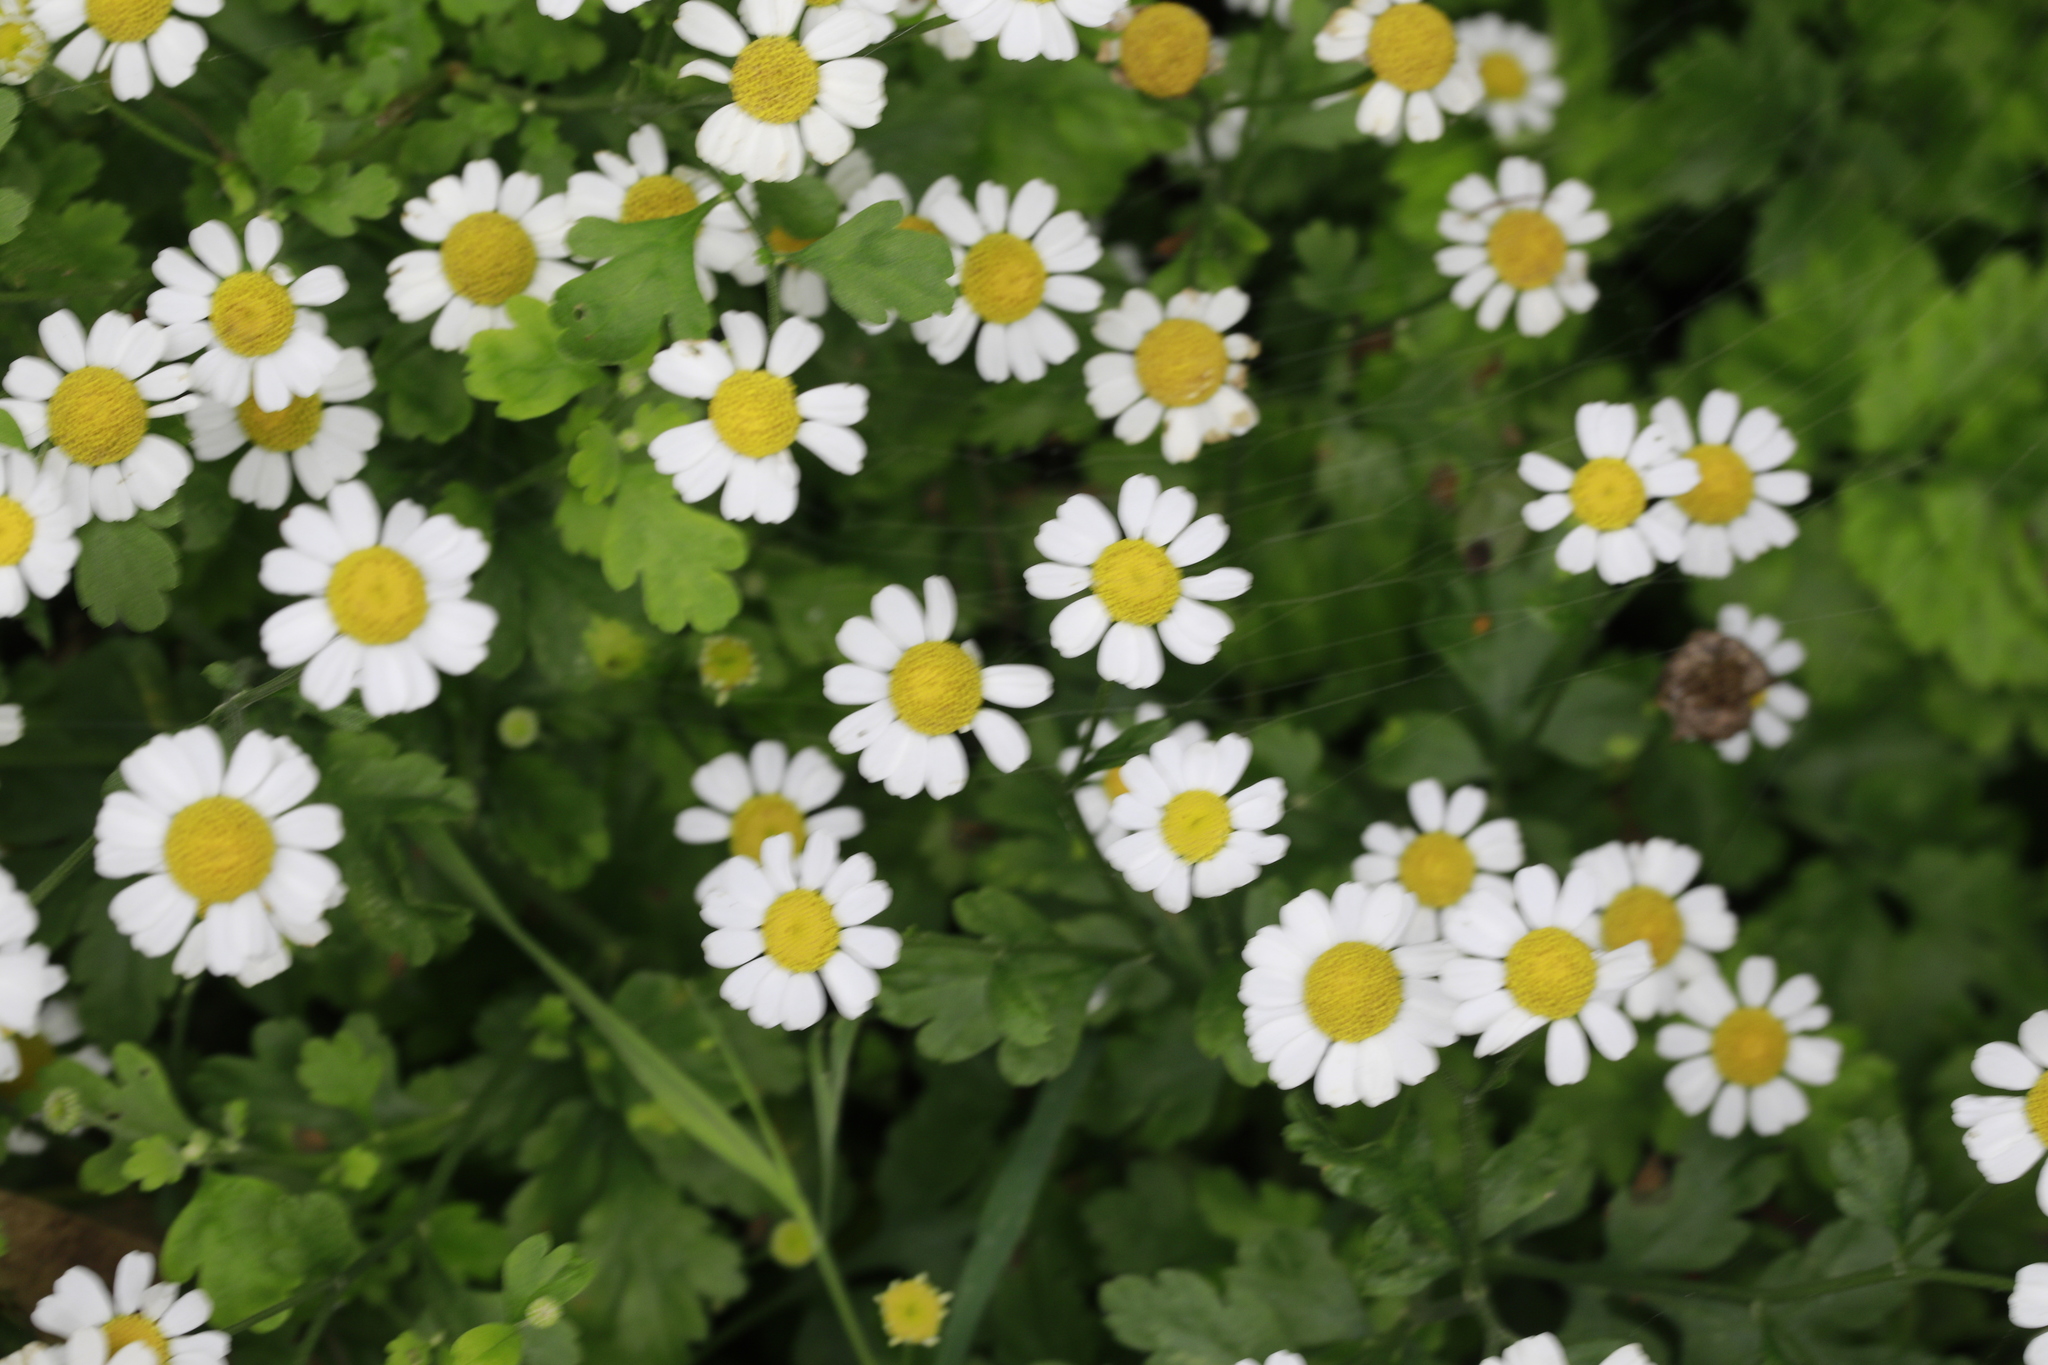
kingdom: Plantae
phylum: Tracheophyta
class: Magnoliopsida
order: Asterales
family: Asteraceae
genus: Tanacetum
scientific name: Tanacetum parthenium
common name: Feverfew
